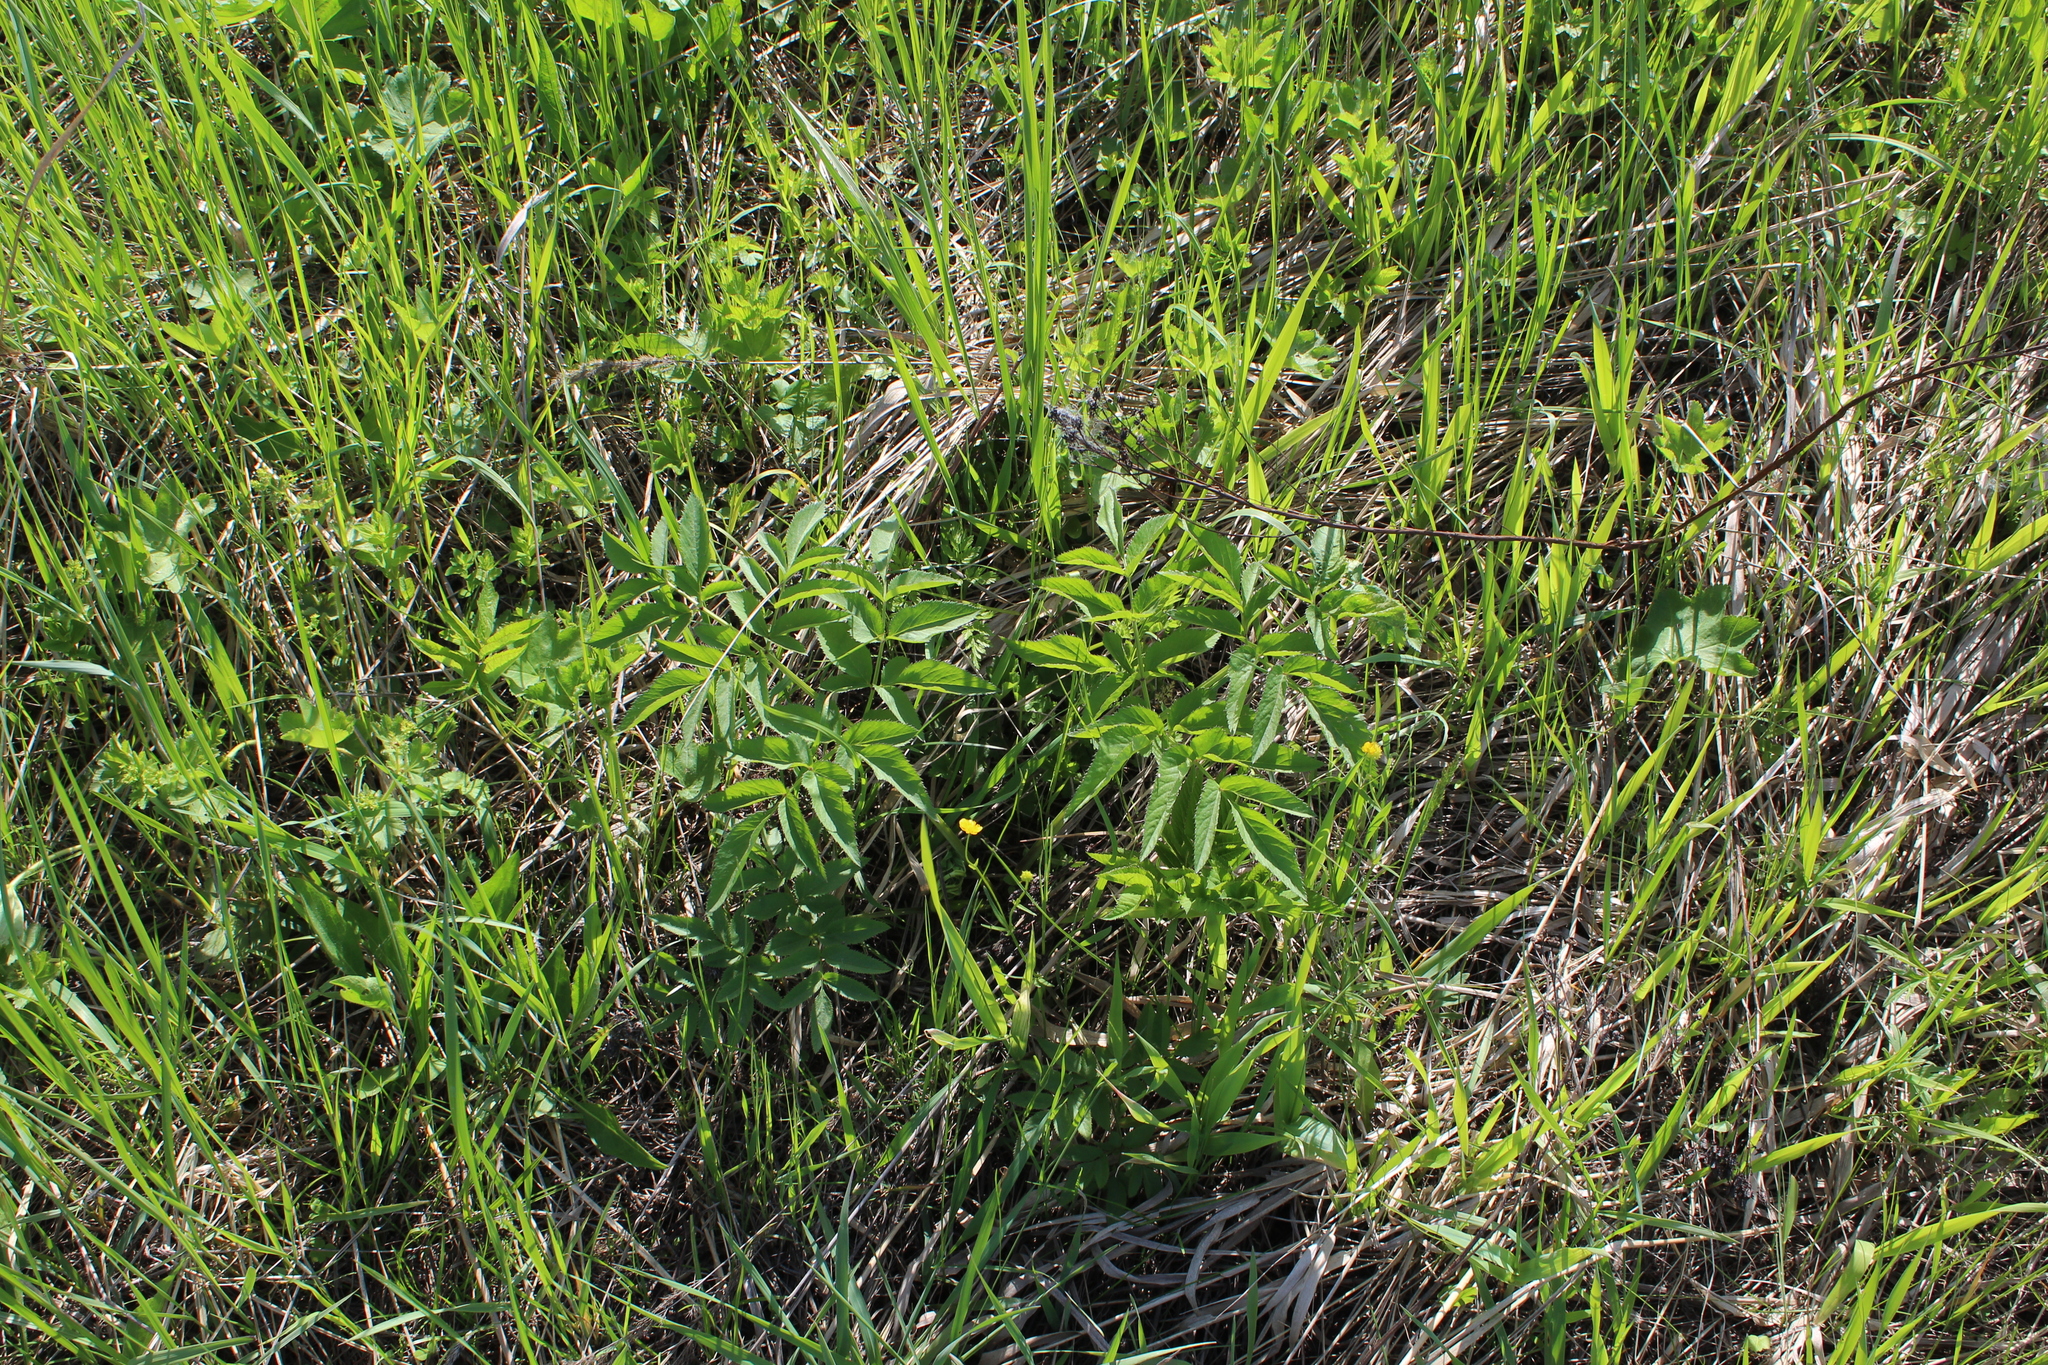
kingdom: Plantae
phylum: Tracheophyta
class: Magnoliopsida
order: Apiales
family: Apiaceae
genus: Angelica
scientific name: Angelica sylvestris
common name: Wild angelica
